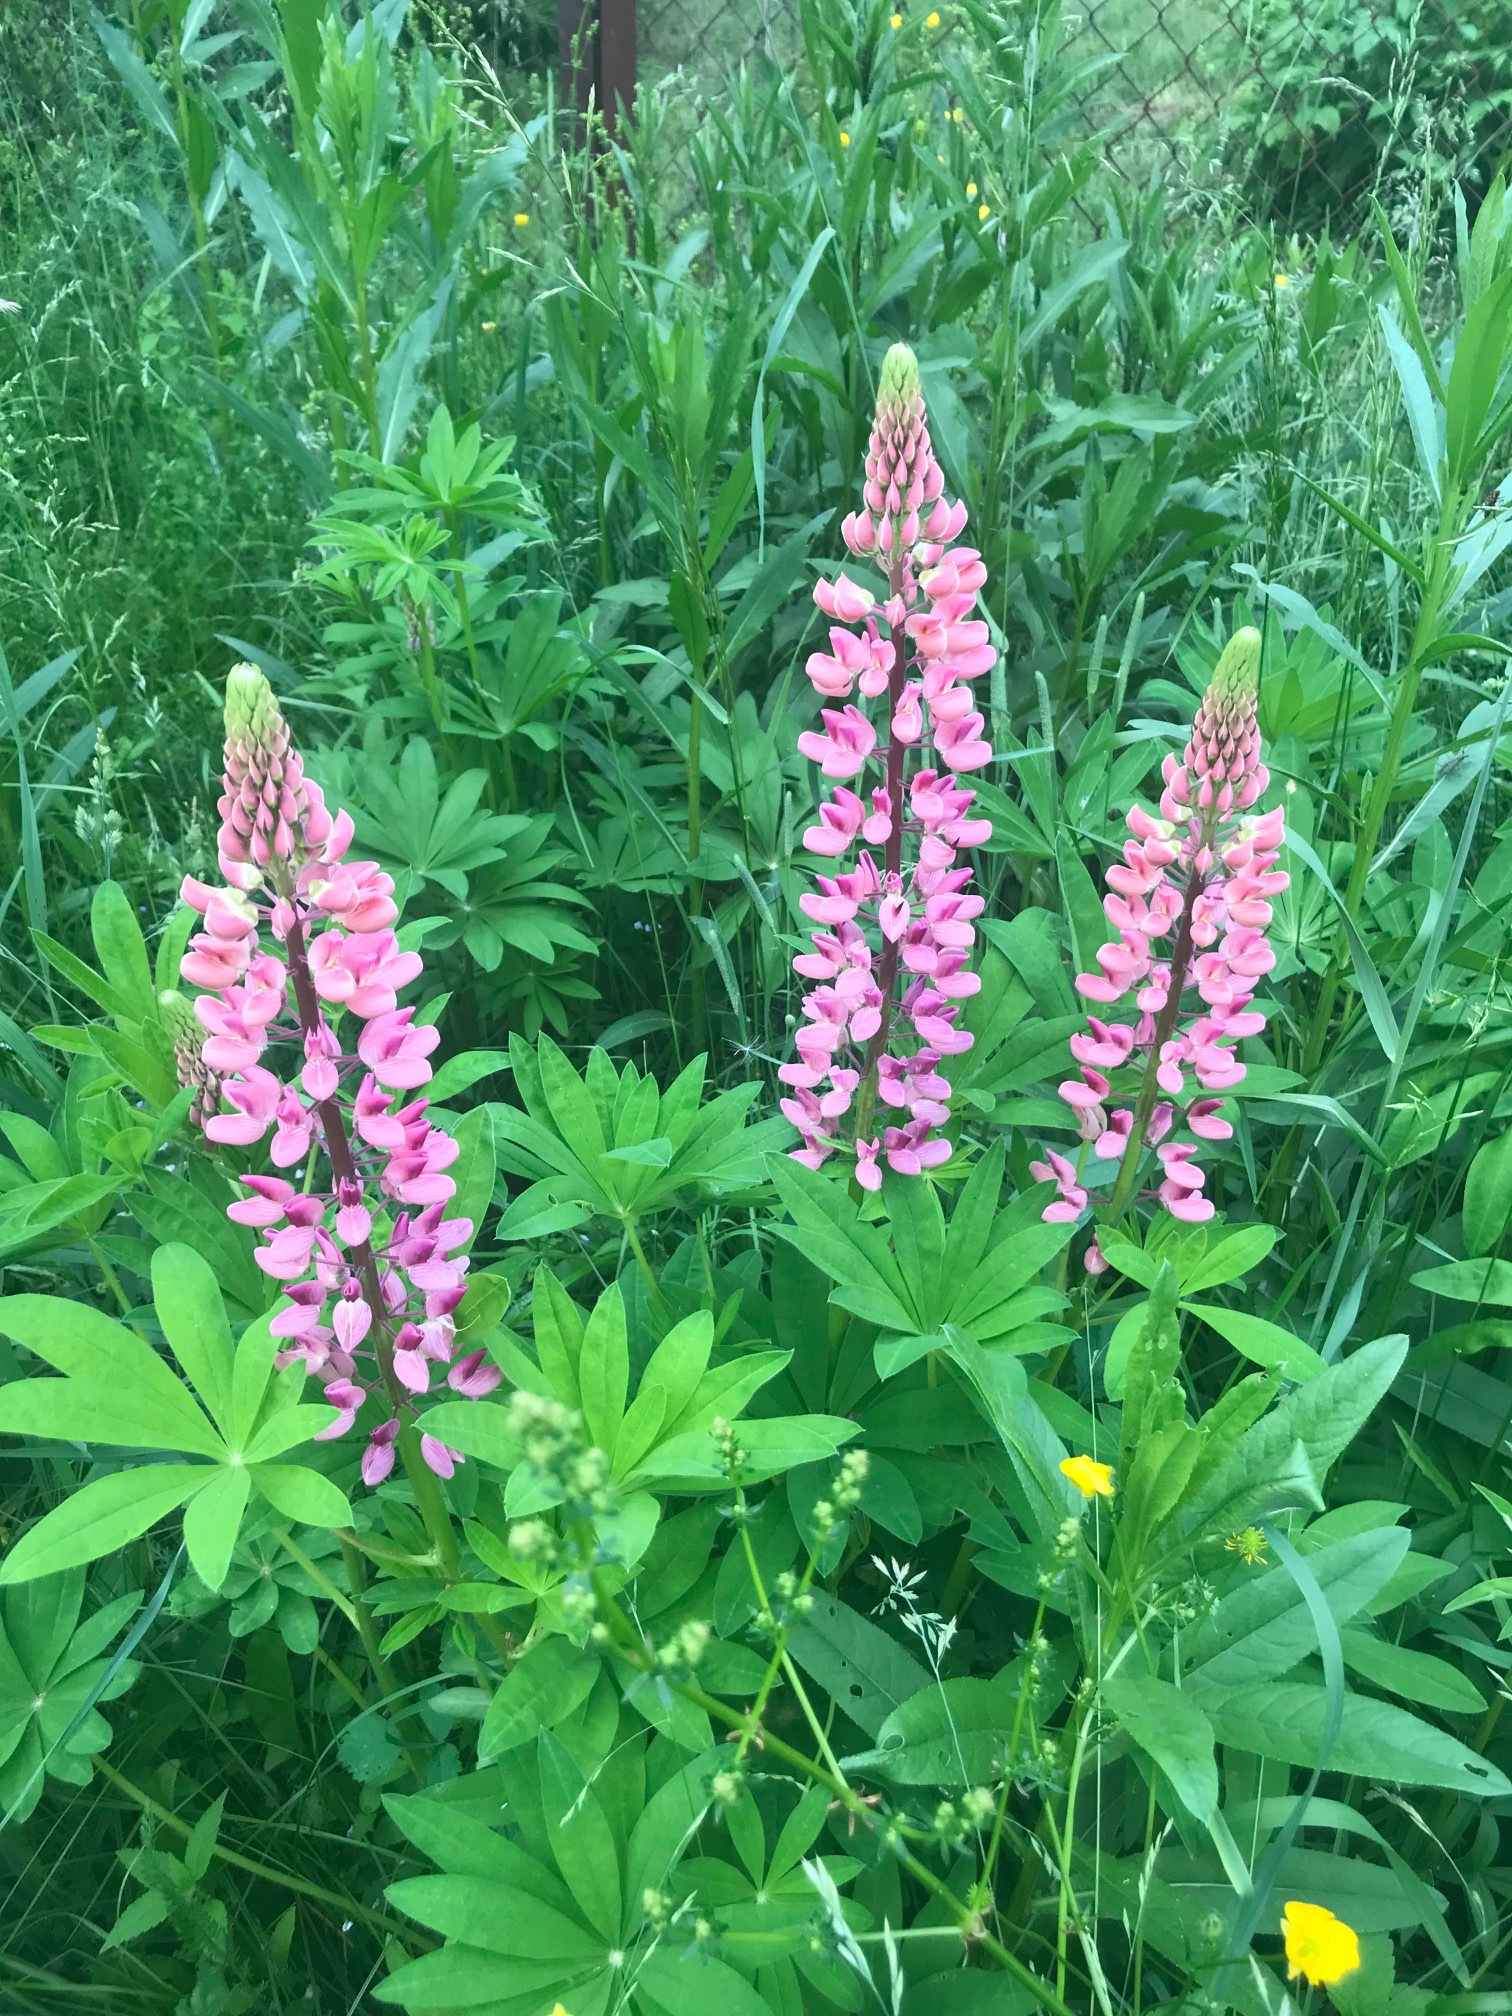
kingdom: Plantae
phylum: Tracheophyta
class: Magnoliopsida
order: Fabales
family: Fabaceae
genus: Lupinus
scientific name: Lupinus polyphyllus
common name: Garden lupin
